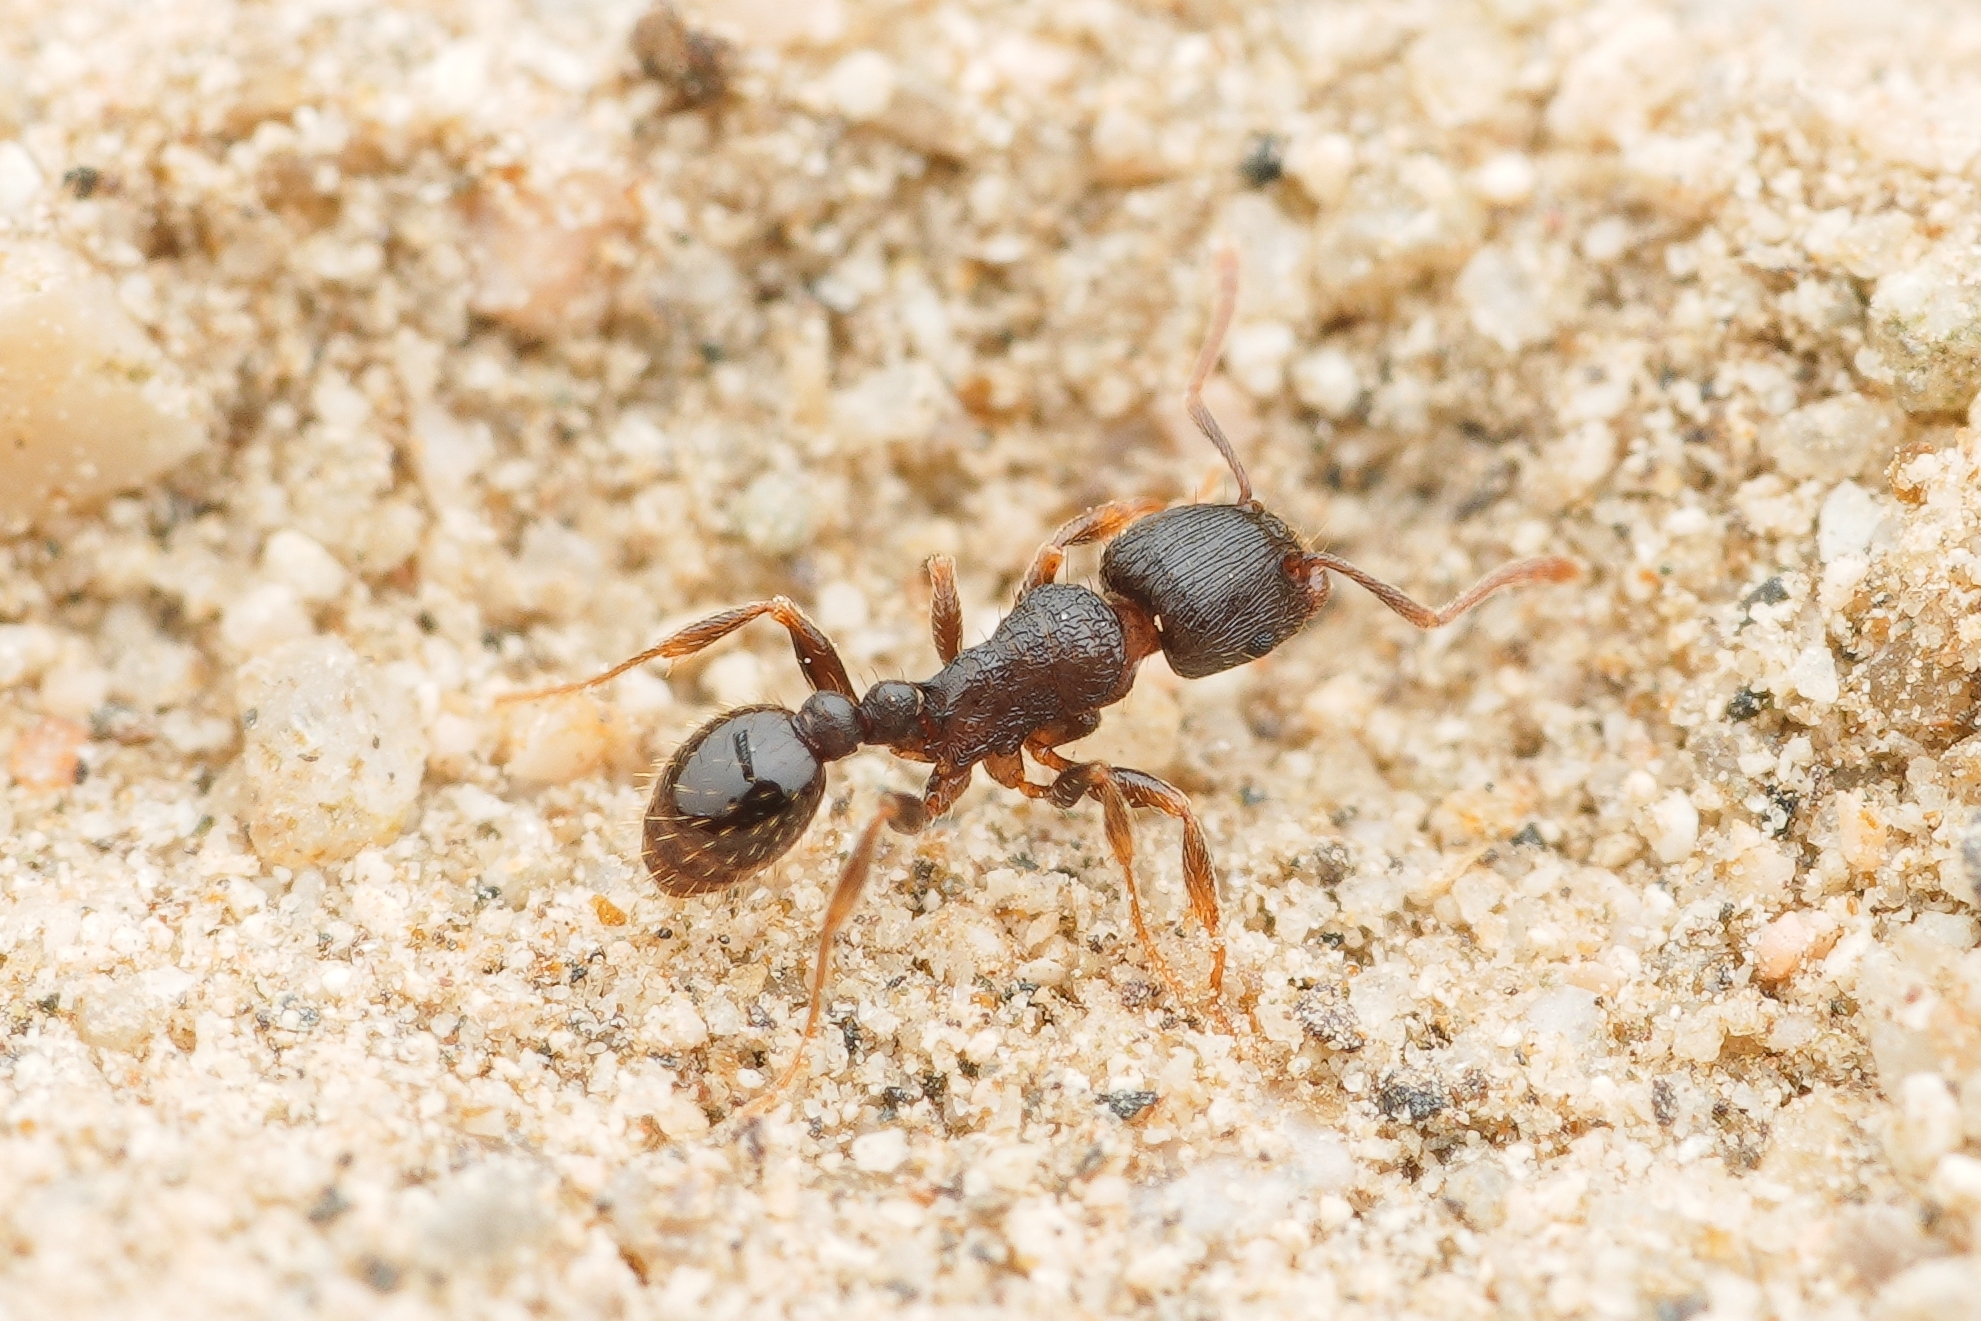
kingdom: Animalia
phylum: Arthropoda
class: Insecta
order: Hymenoptera
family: Formicidae
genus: Tetramorium
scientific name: Tetramorium tsushimae
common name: Ant
